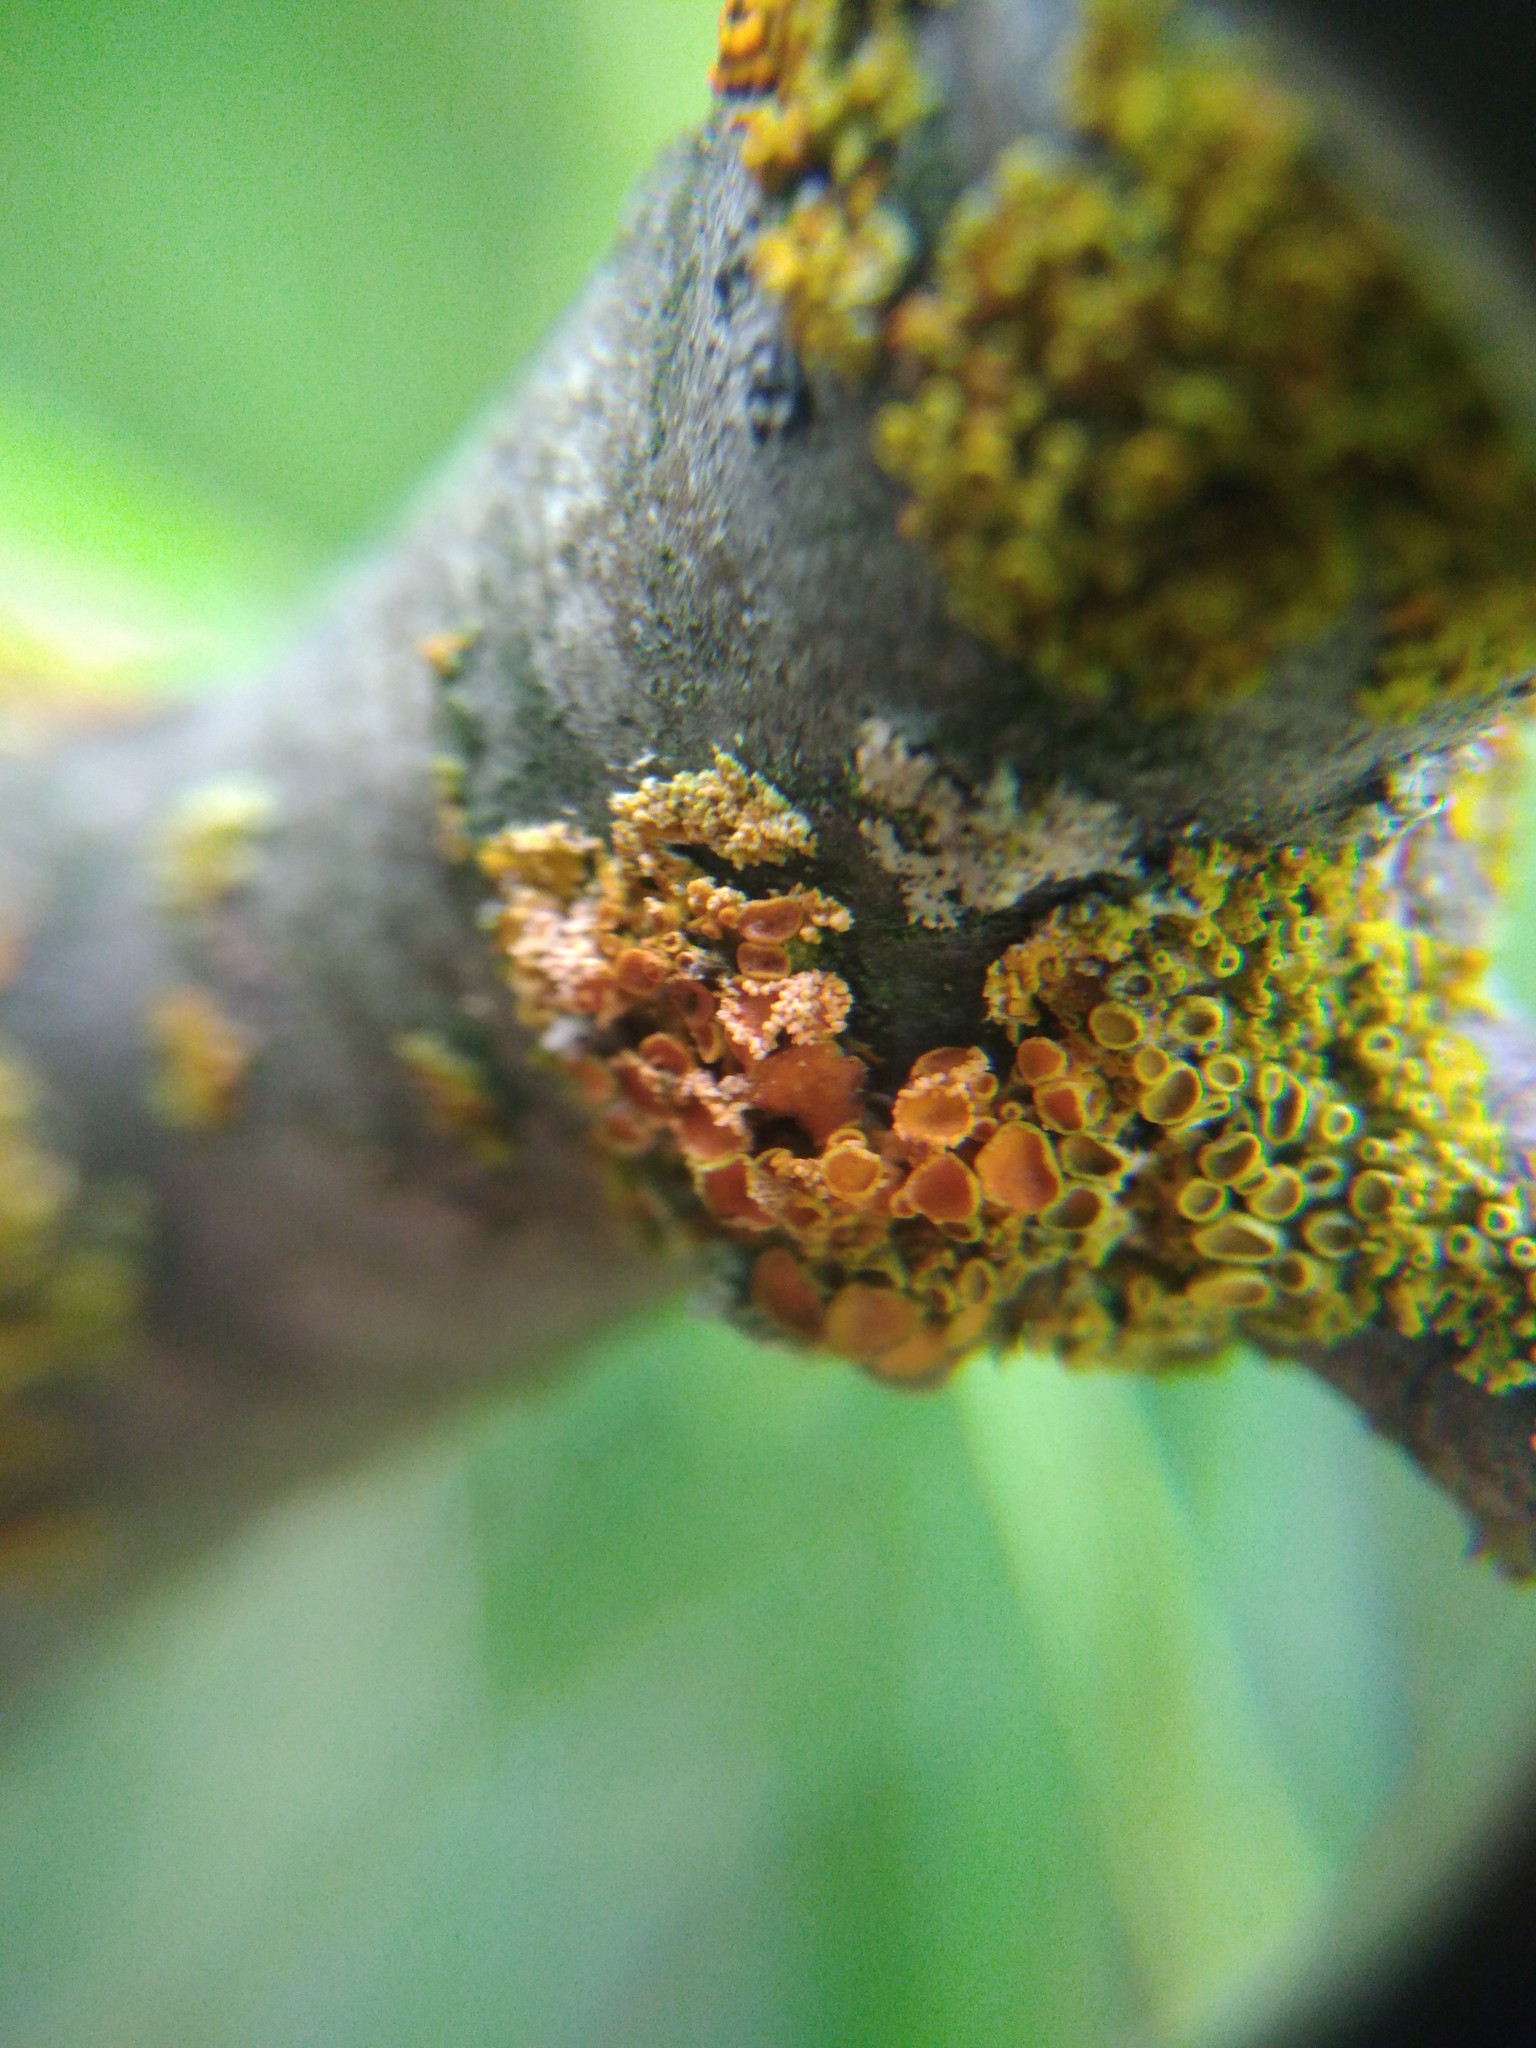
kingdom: Fungi
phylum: Basidiomycota
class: Agaricomycetes
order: Corticiales
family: Corticiaceae
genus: Erythricium
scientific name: Erythricium aurantiacum
